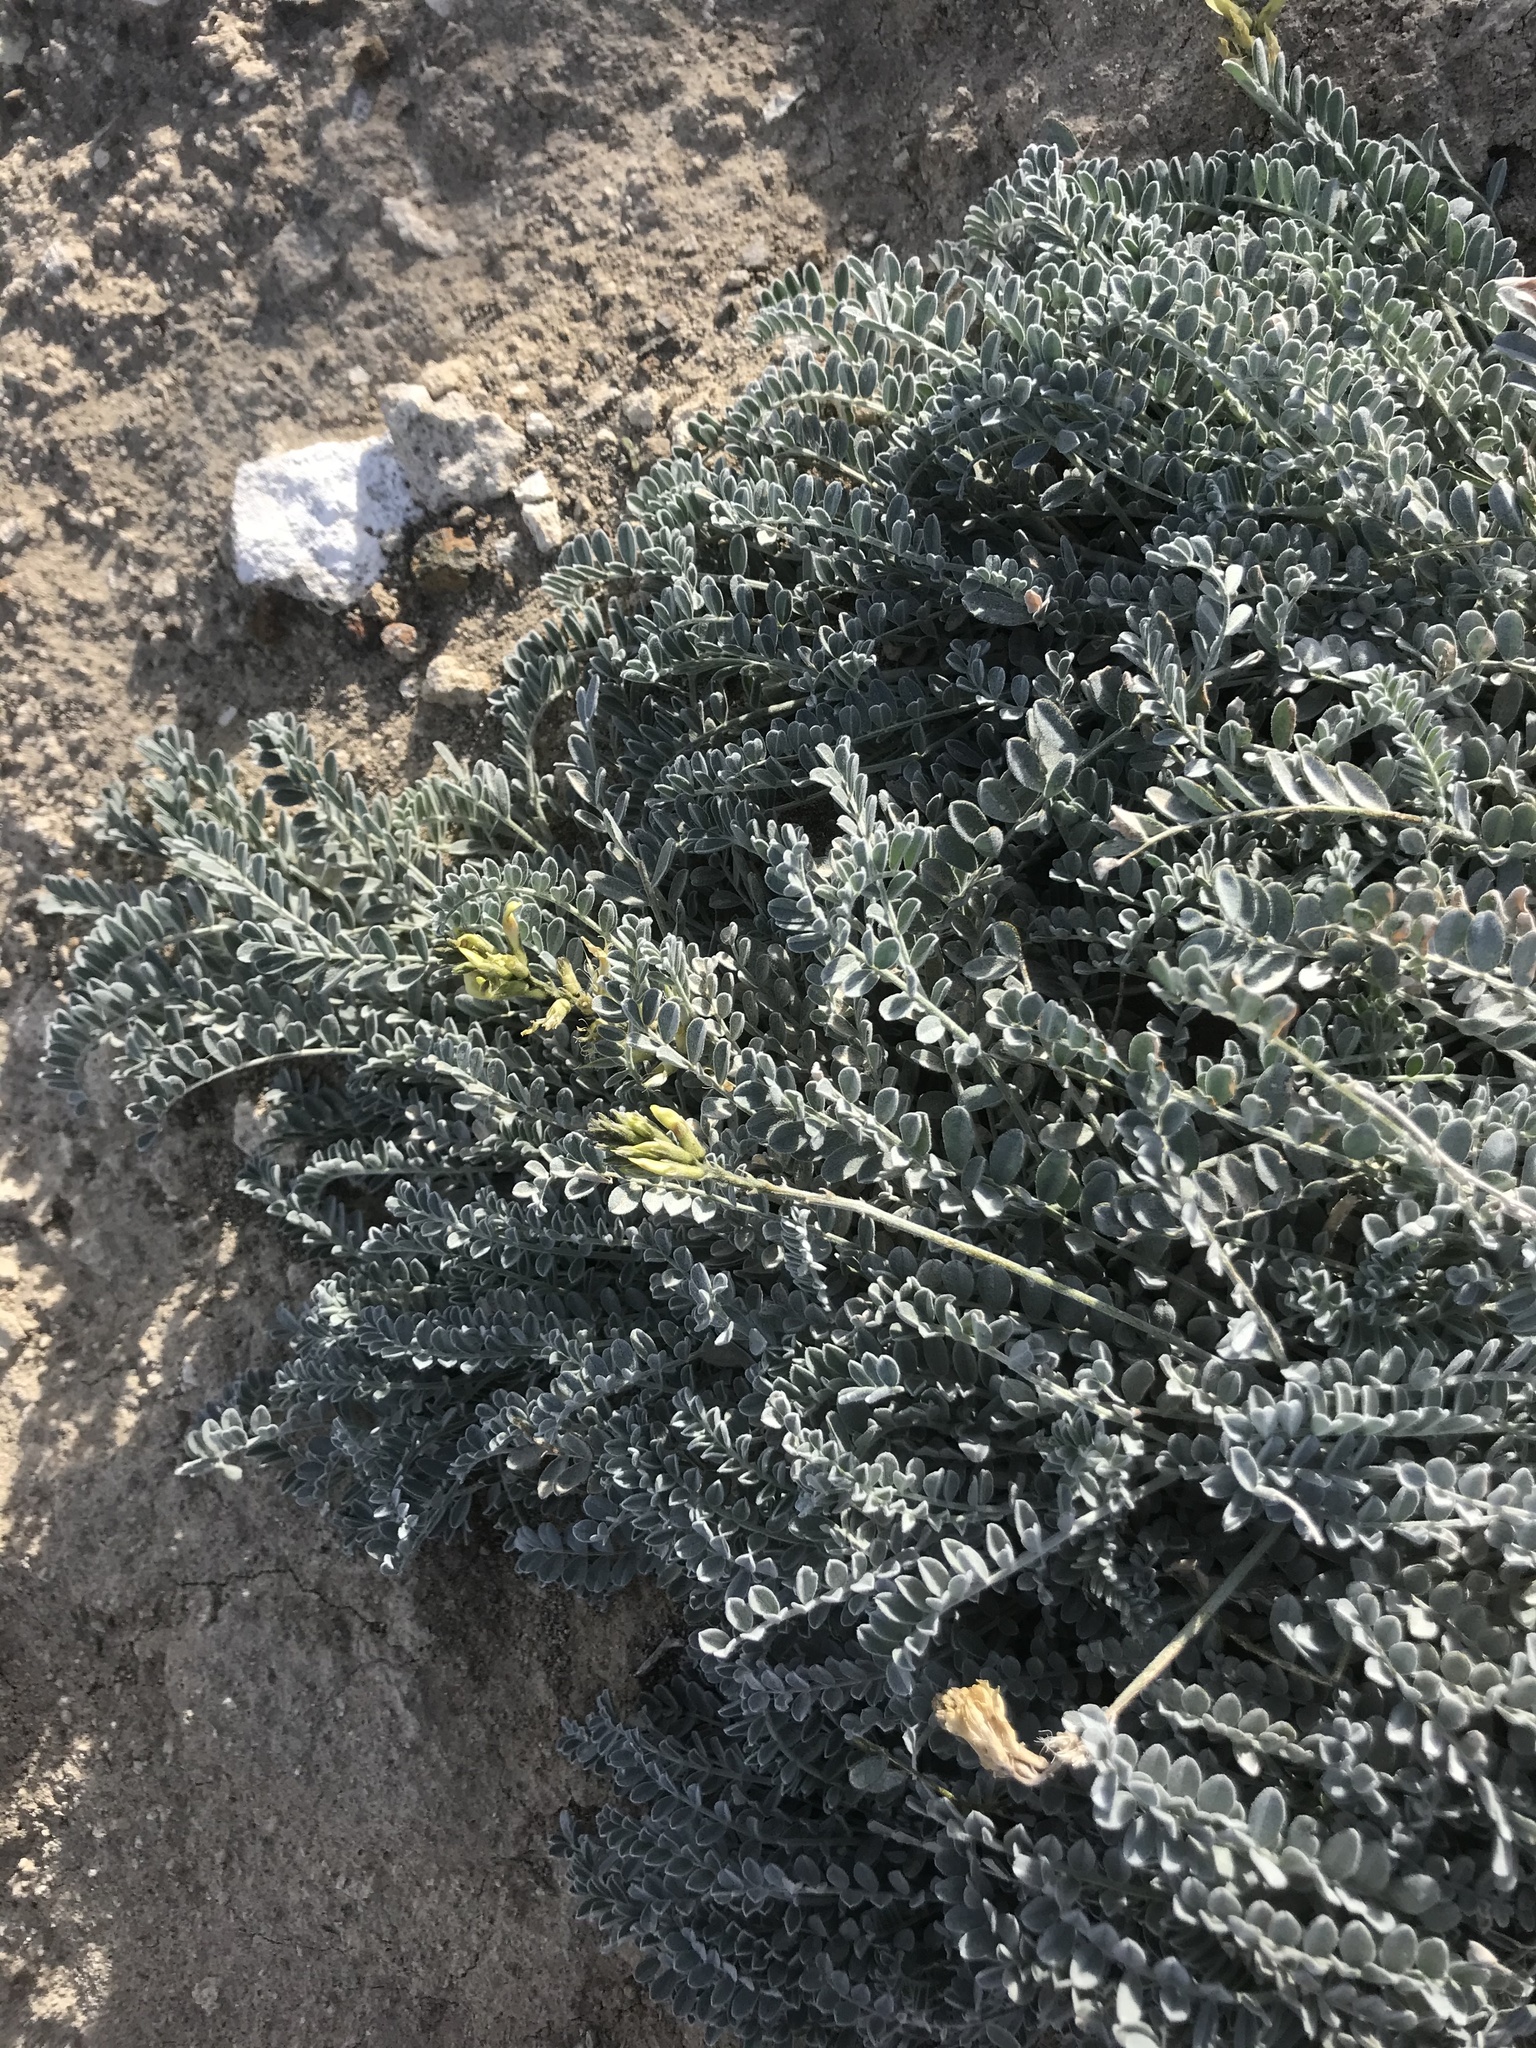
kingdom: Plantae
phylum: Tracheophyta
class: Magnoliopsida
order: Fabales
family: Fabaceae
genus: Astragalus
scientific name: Astragalus traskiae
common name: Trask's milk-vetch
